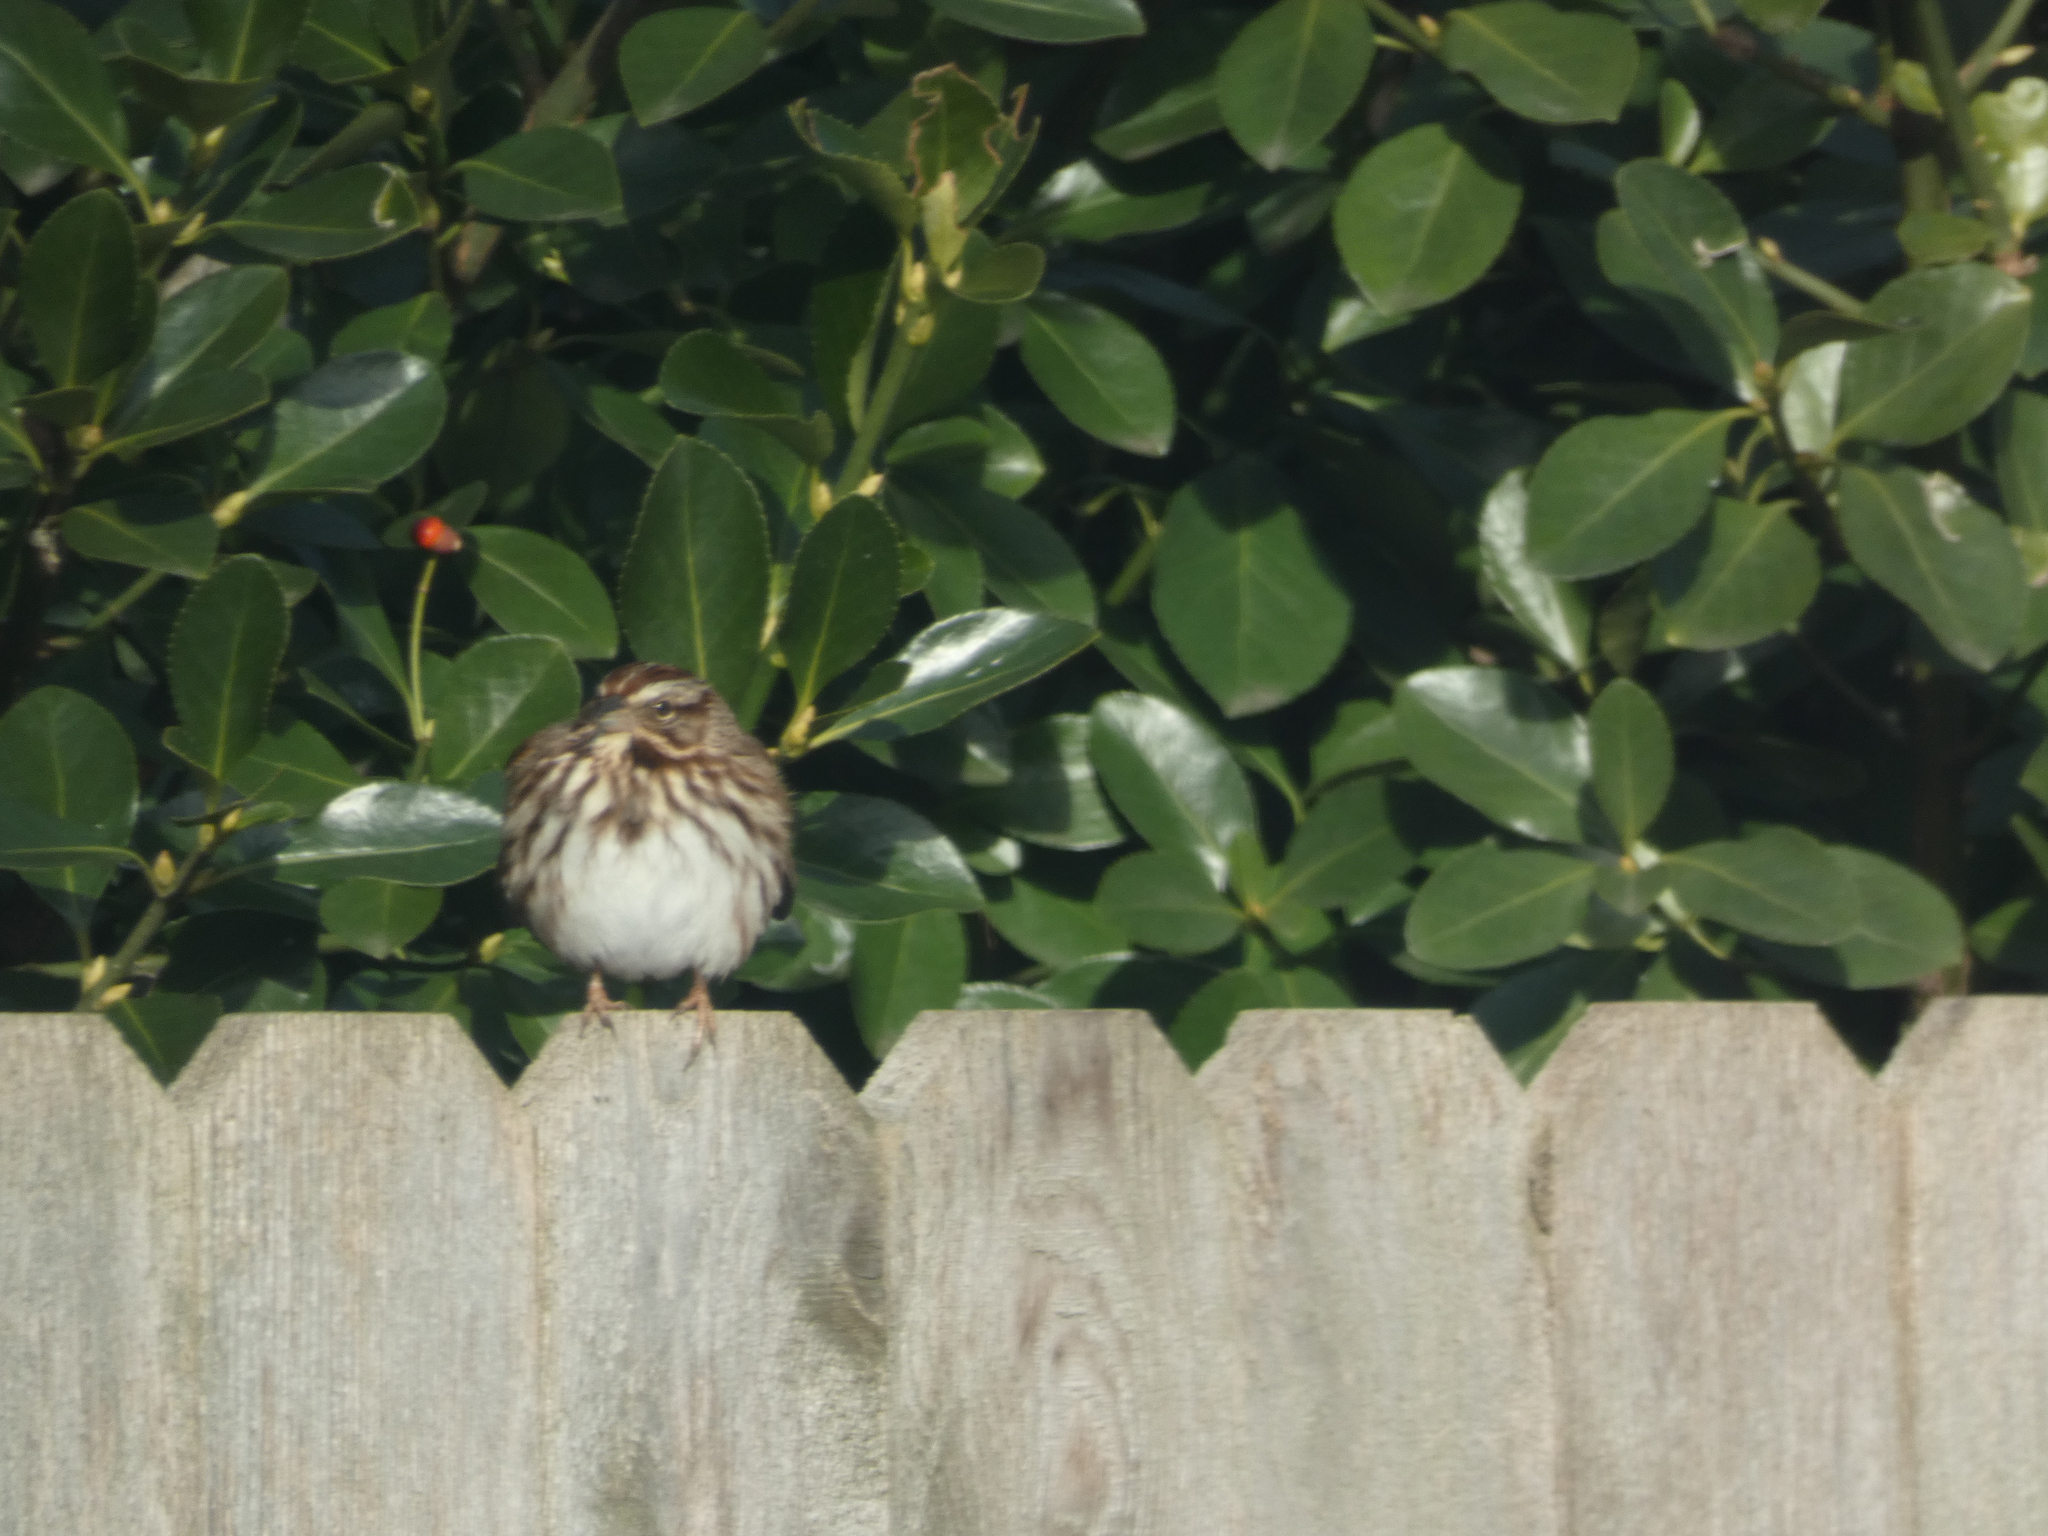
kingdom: Animalia
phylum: Chordata
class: Aves
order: Passeriformes
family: Passerellidae
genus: Melospiza
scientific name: Melospiza melodia
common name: Song sparrow
